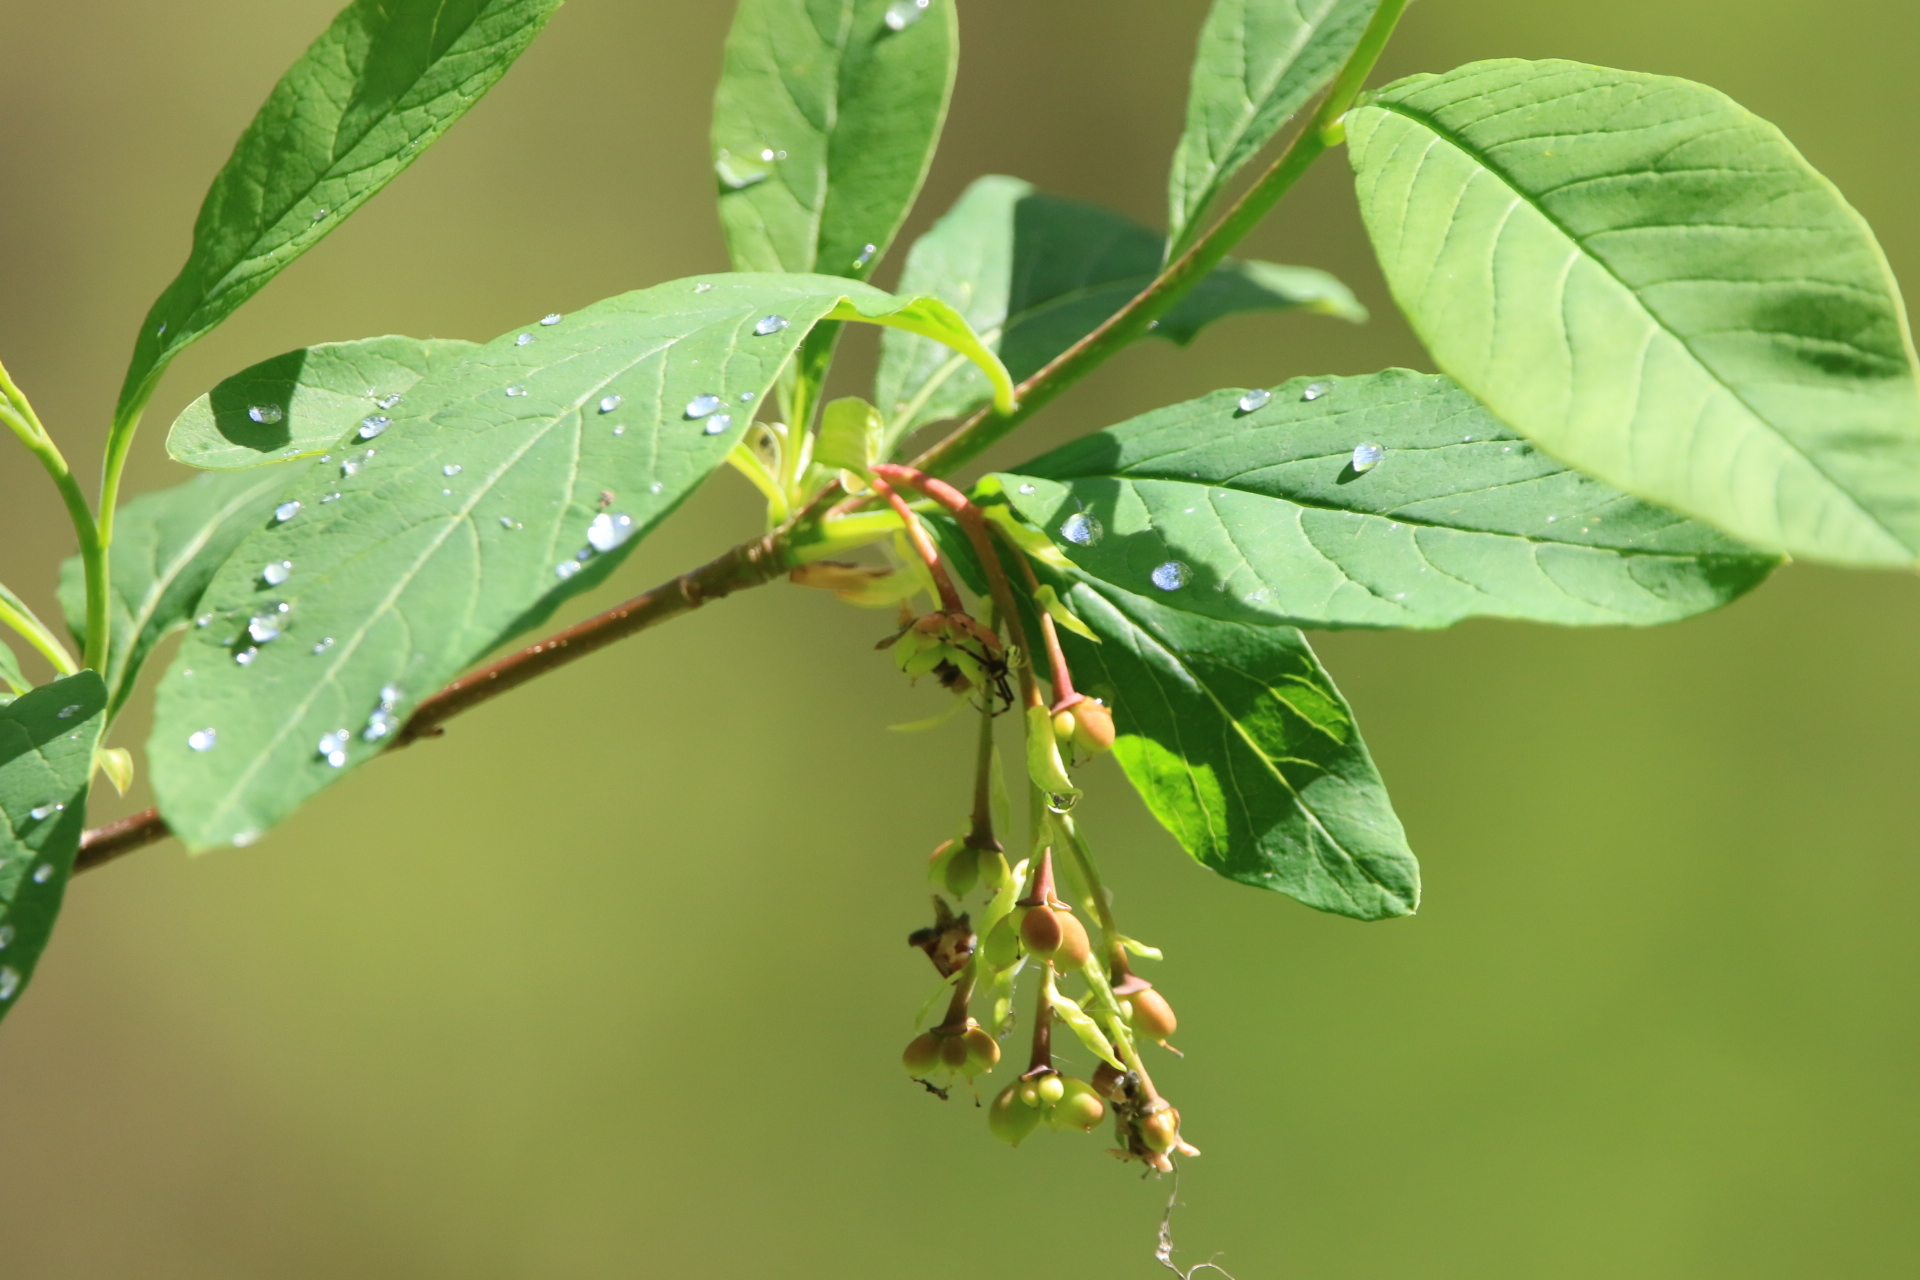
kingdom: Plantae
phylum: Tracheophyta
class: Magnoliopsida
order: Rosales
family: Rosaceae
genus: Oemleria
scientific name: Oemleria cerasiformis
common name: Osoberry
